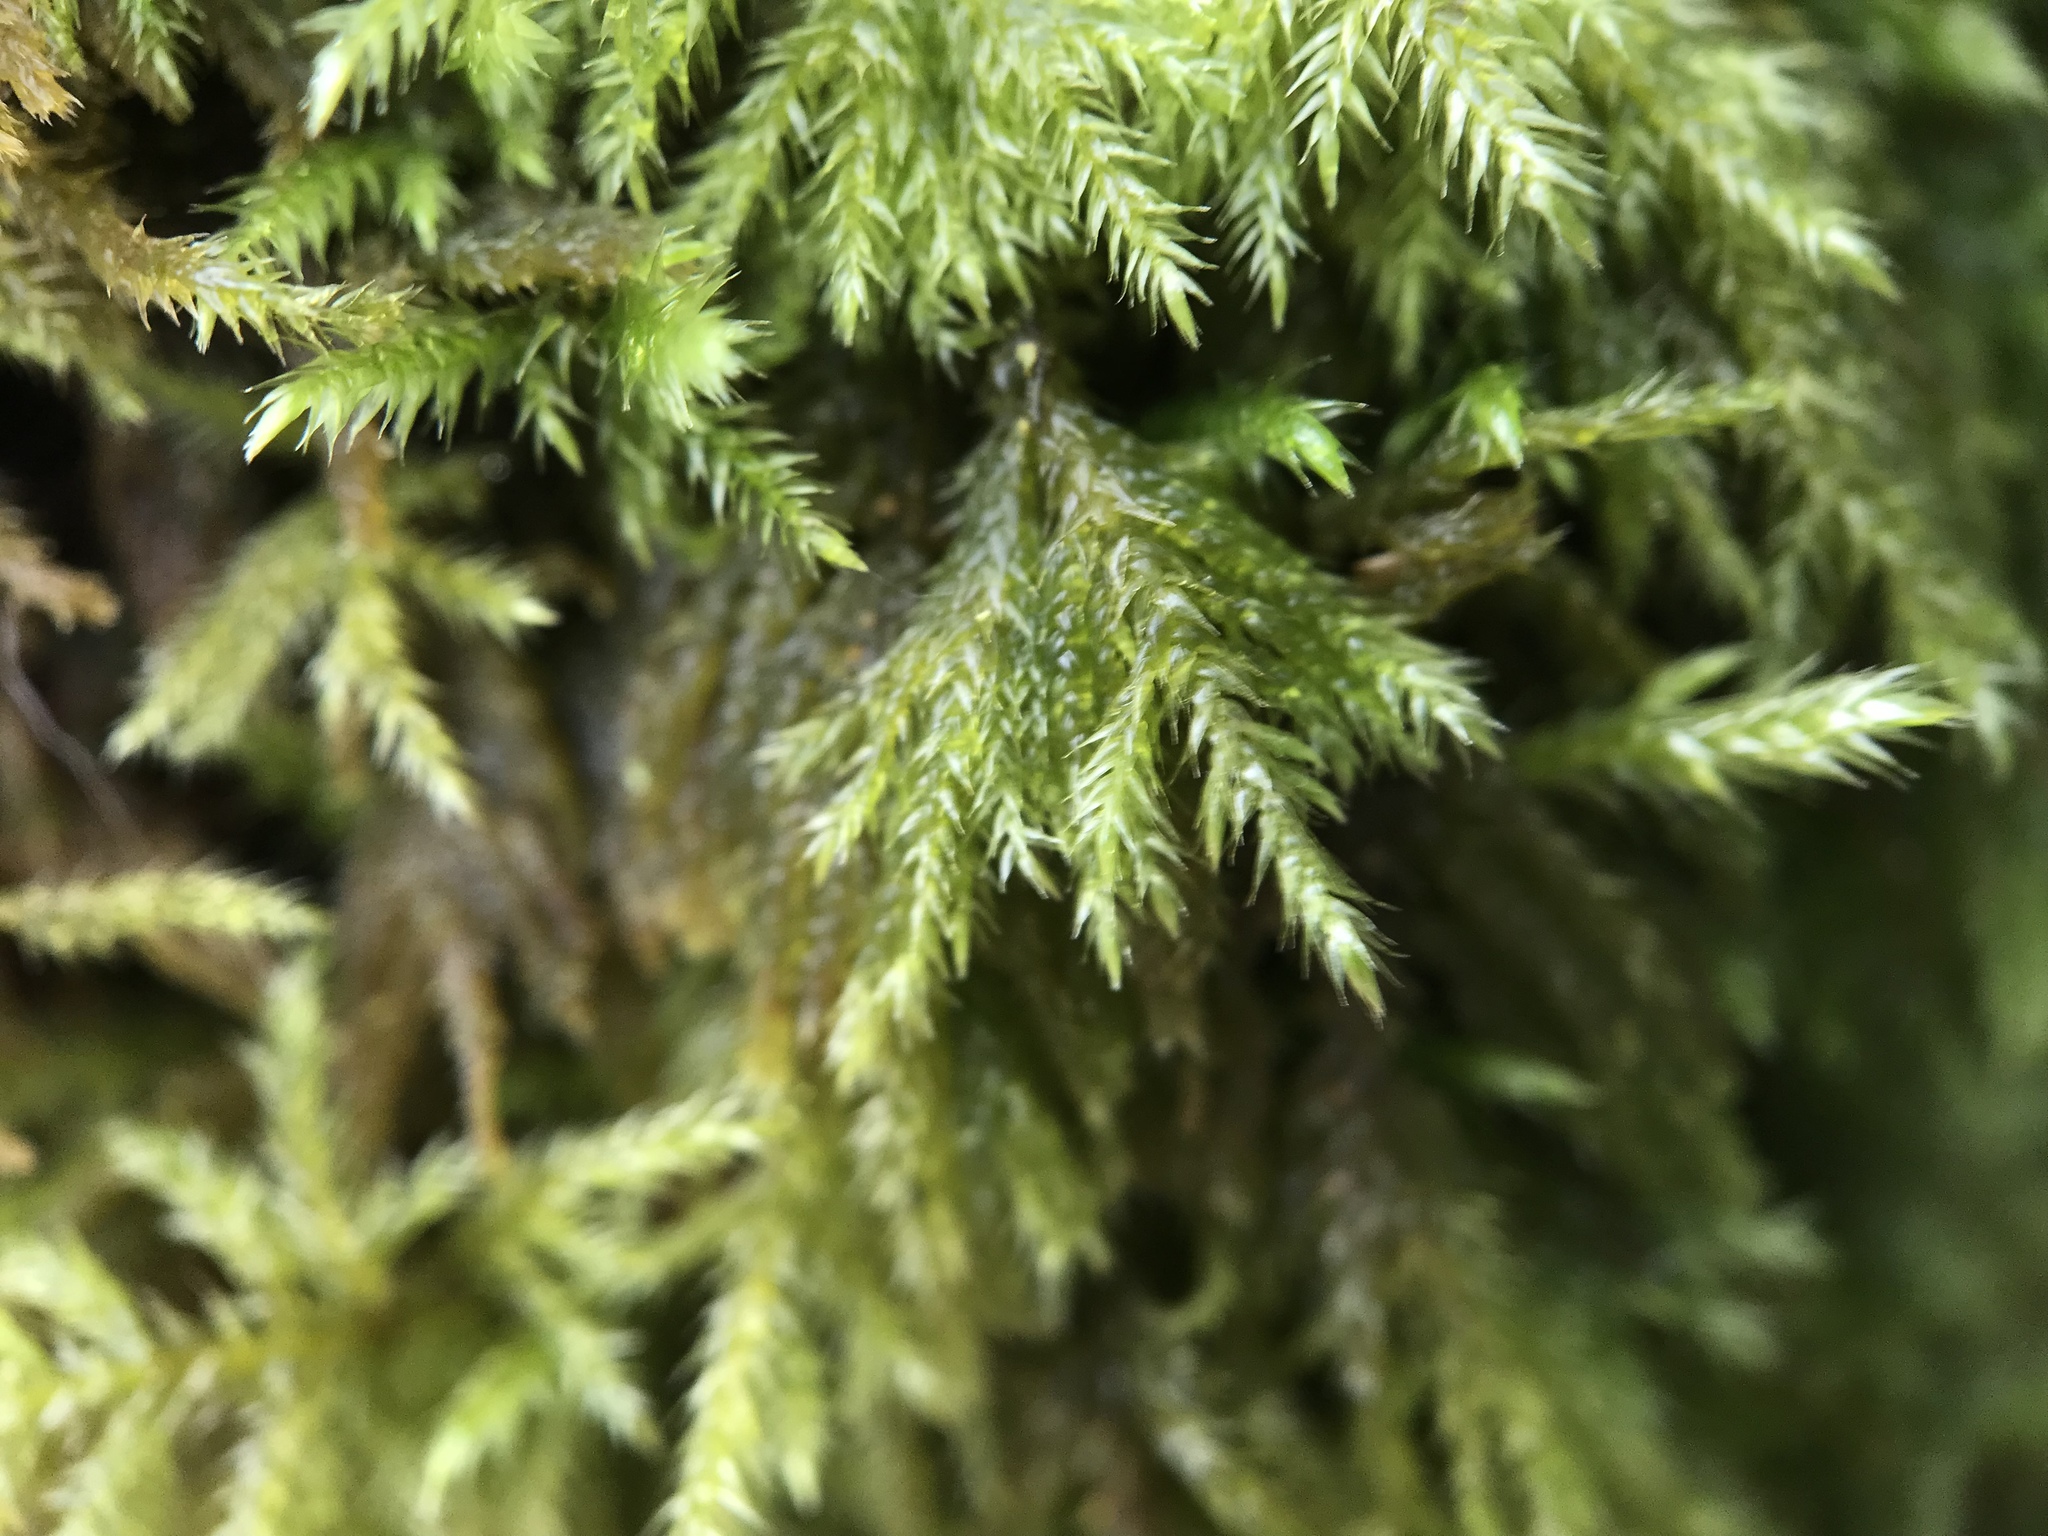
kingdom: Plantae
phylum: Bryophyta
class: Bryopsida
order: Hypnales
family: Lembophyllaceae
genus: Pseudisothecium
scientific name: Pseudisothecium myosuroides
